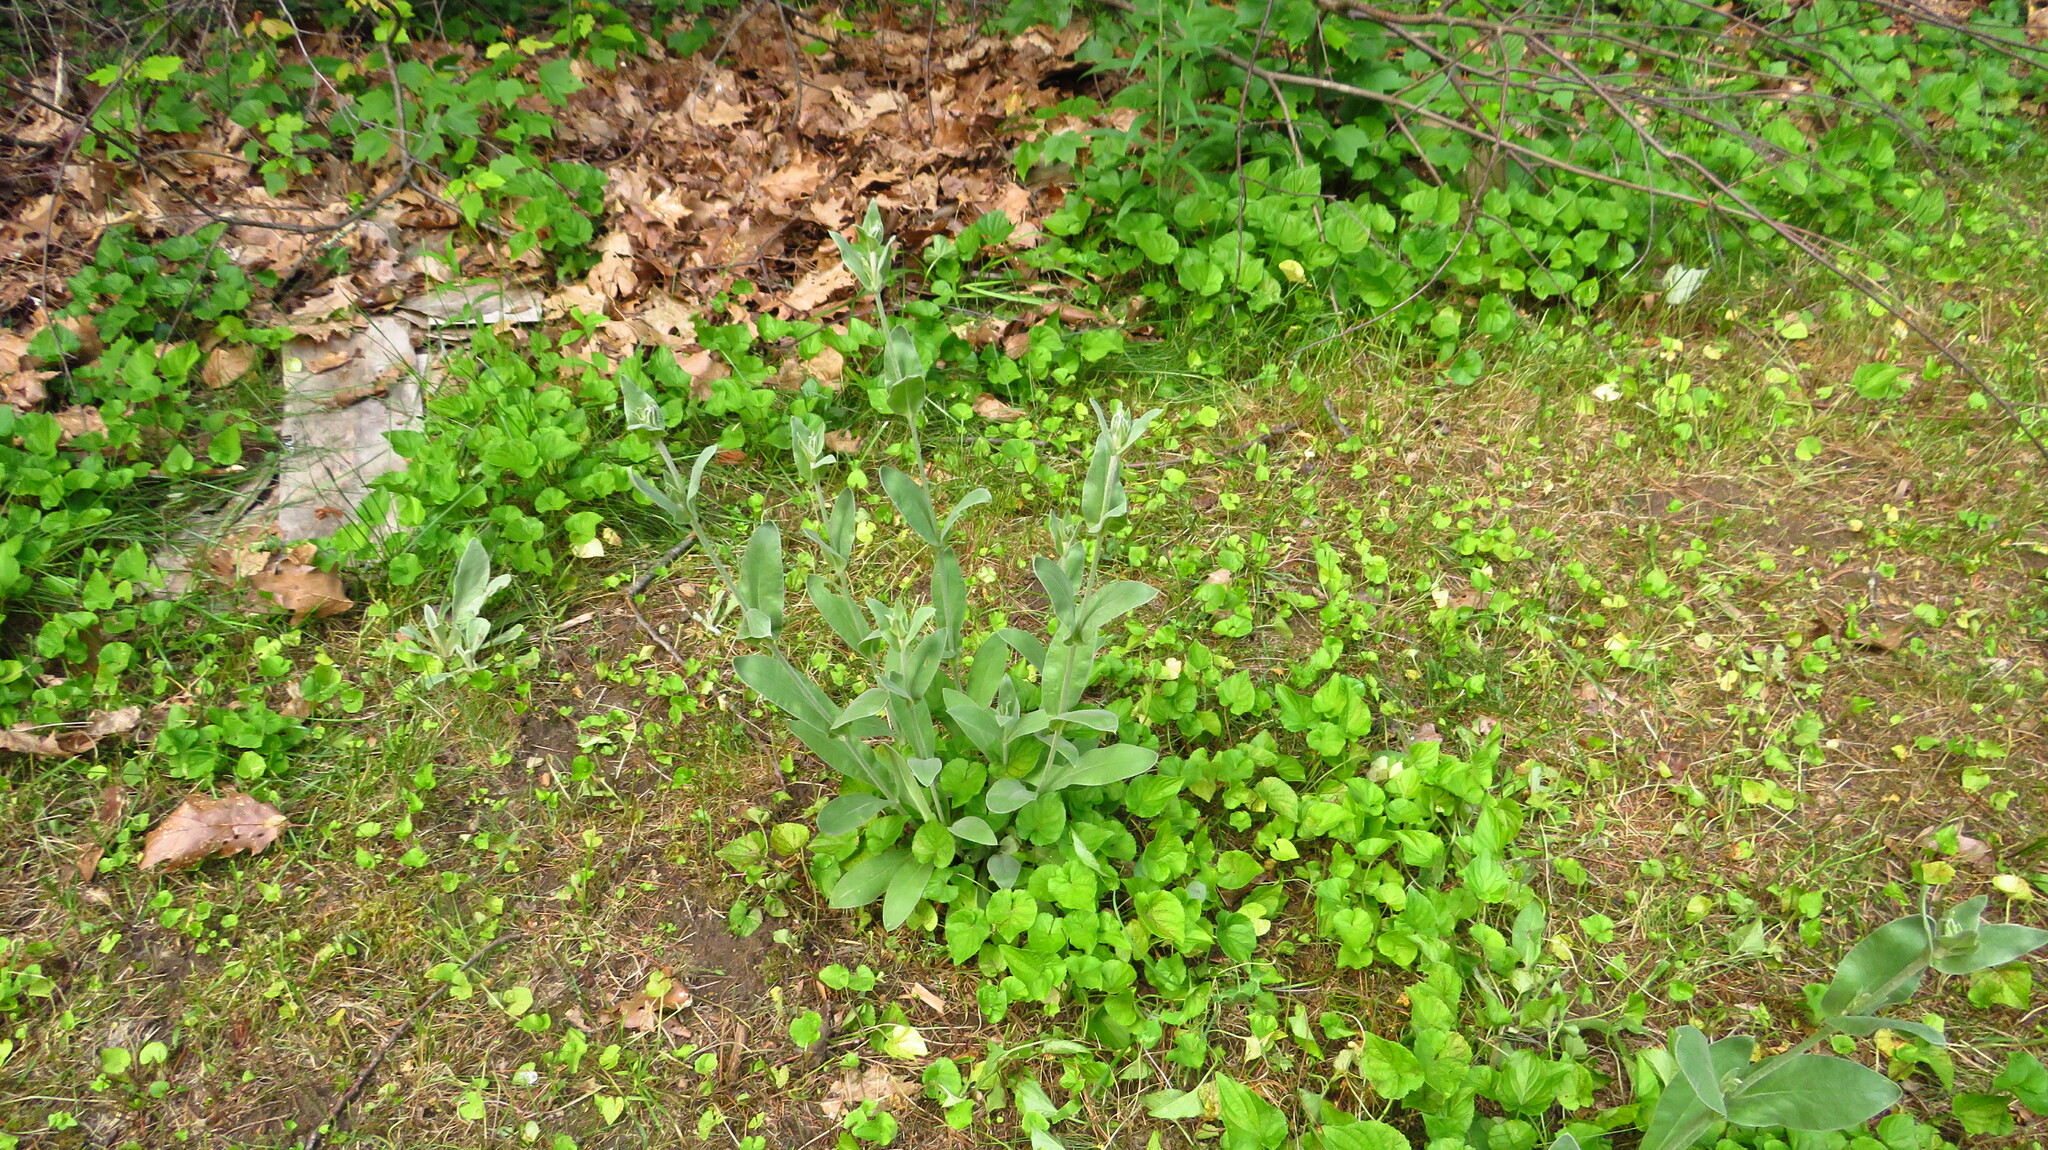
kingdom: Plantae
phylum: Tracheophyta
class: Magnoliopsida
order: Caryophyllales
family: Caryophyllaceae
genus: Silene
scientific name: Silene coronaria
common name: Rose campion
